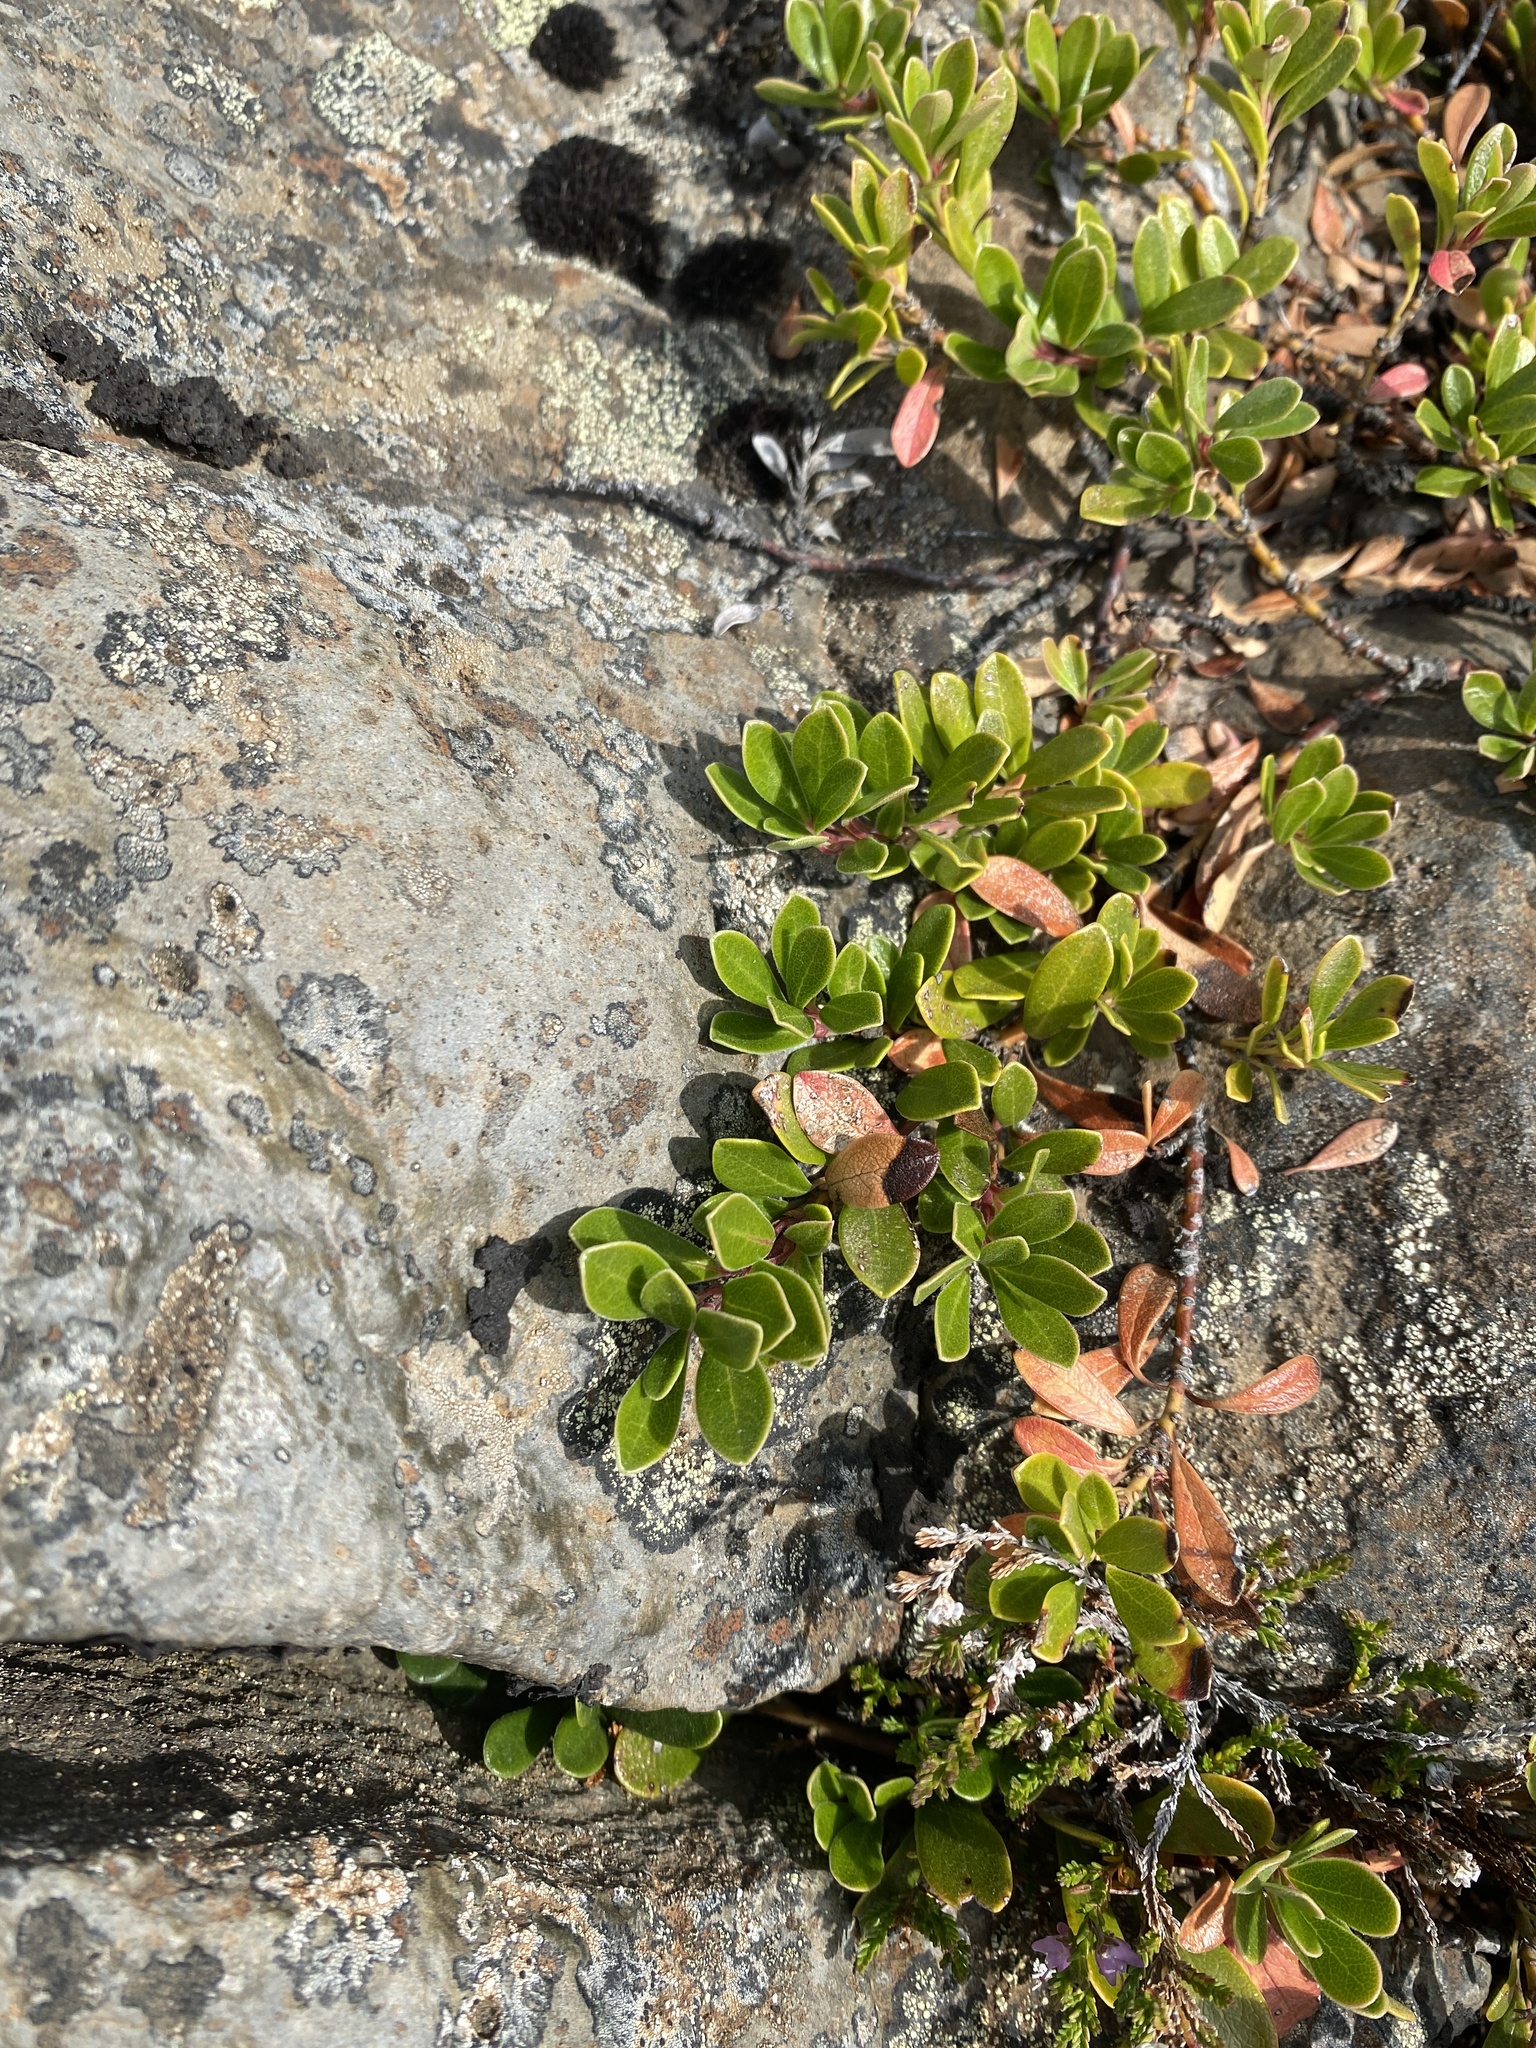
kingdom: Plantae
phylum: Tracheophyta
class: Magnoliopsida
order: Ericales
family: Ericaceae
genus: Arctostaphylos
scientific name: Arctostaphylos uva-ursi
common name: Bearberry
